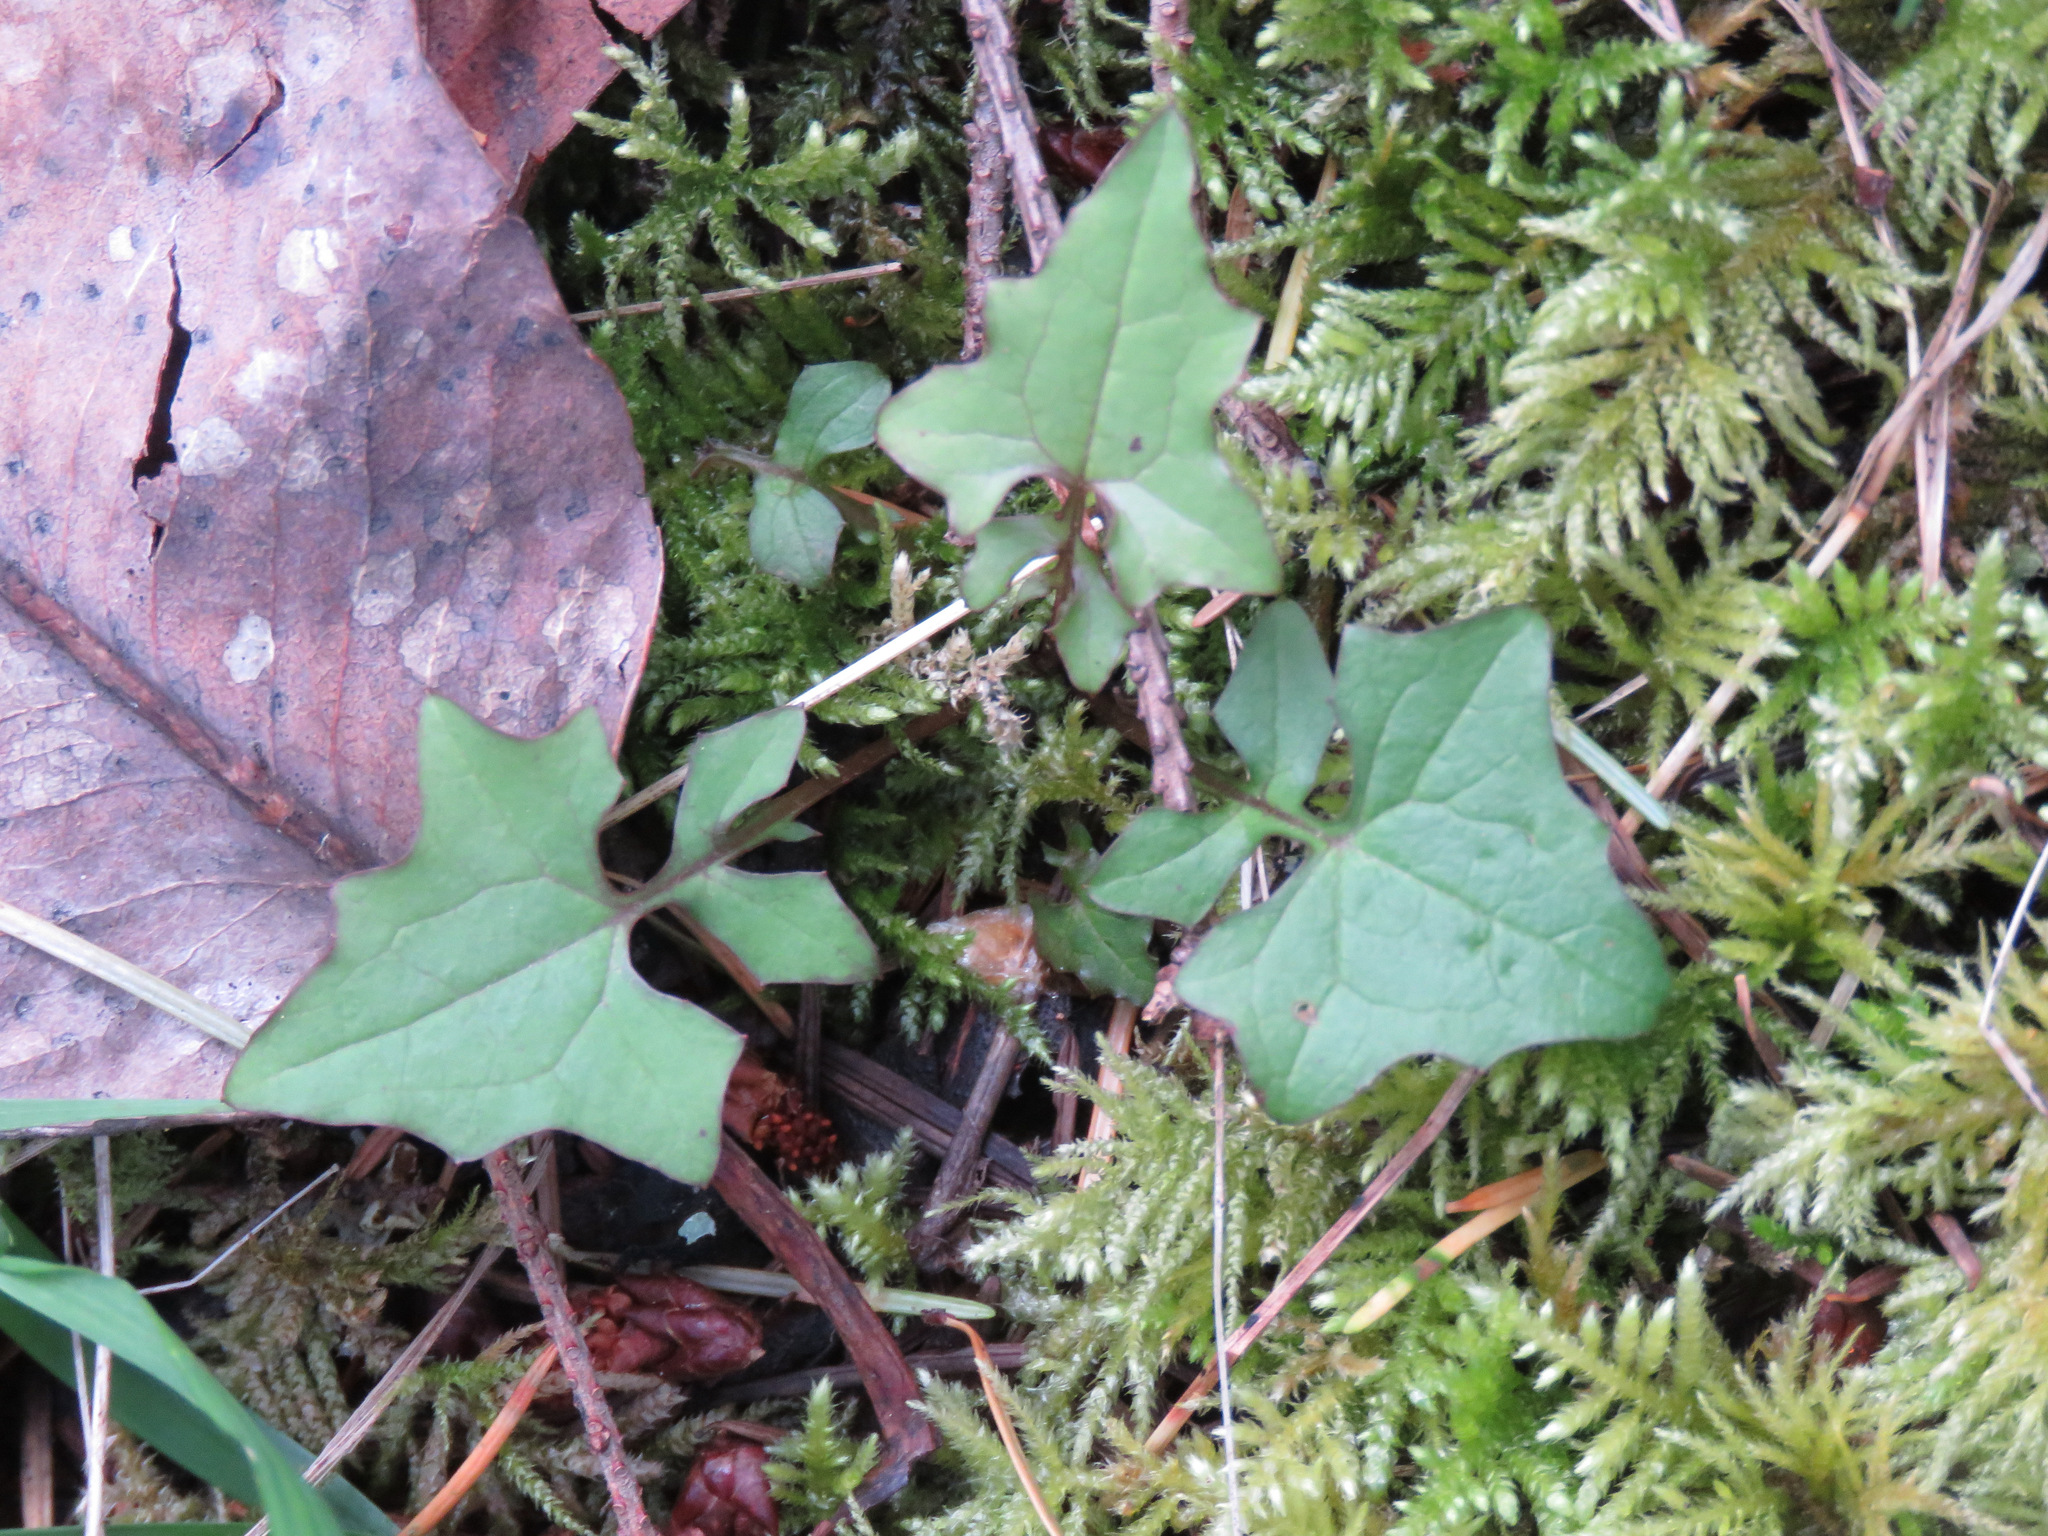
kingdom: Plantae
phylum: Tracheophyta
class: Magnoliopsida
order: Asterales
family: Asteraceae
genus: Mycelis
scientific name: Mycelis muralis
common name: Wall lettuce
